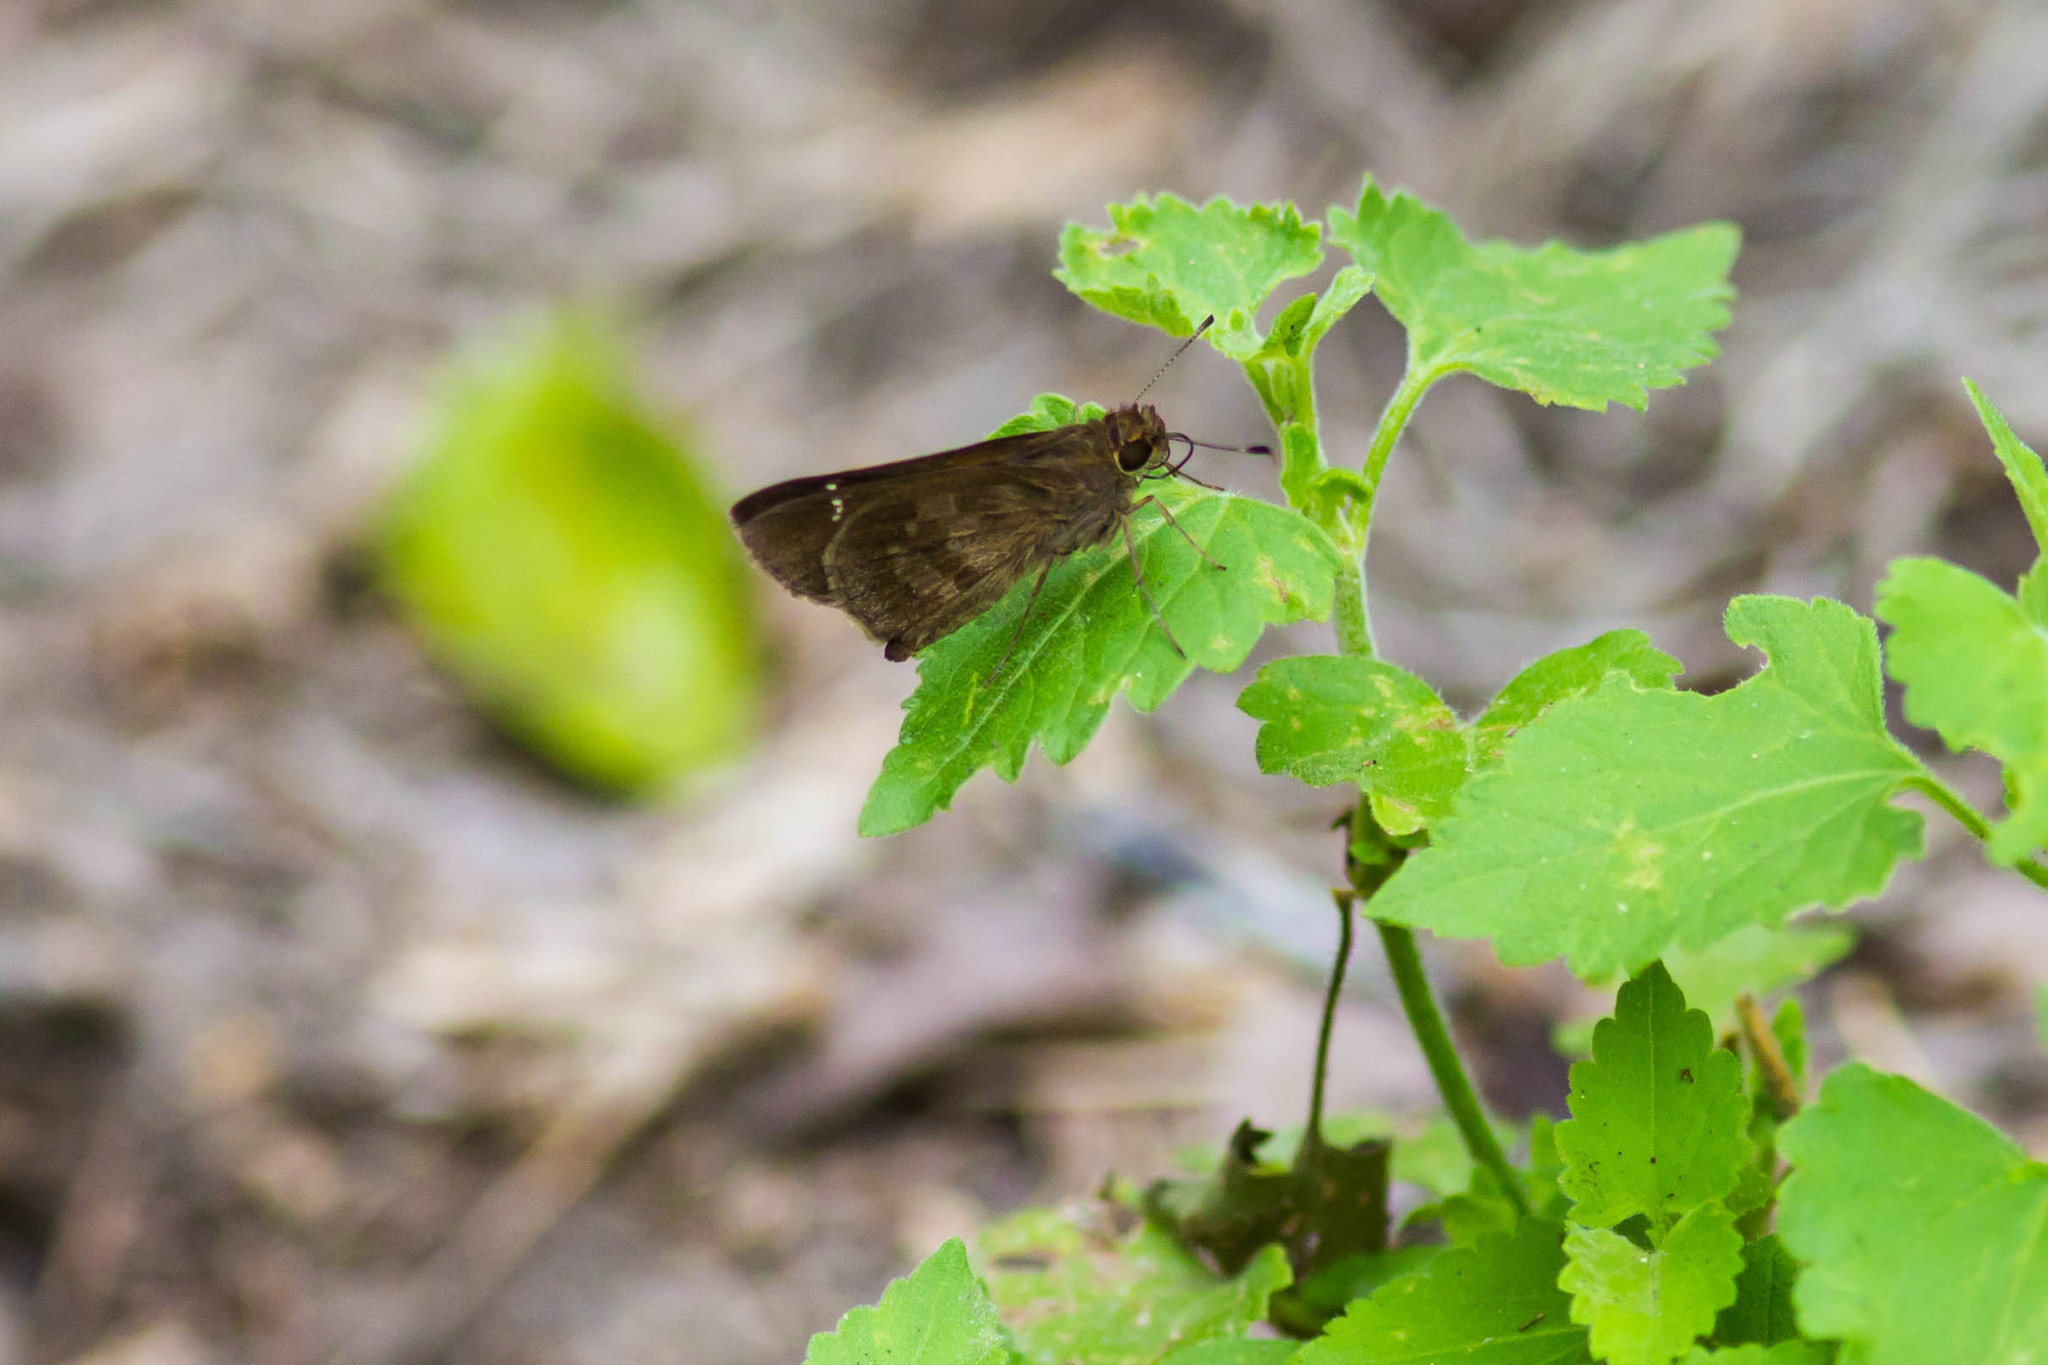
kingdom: Animalia
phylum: Arthropoda
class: Insecta
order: Lepidoptera
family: Hesperiidae
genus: Lerema
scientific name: Lerema accius
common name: Clouded skipper
